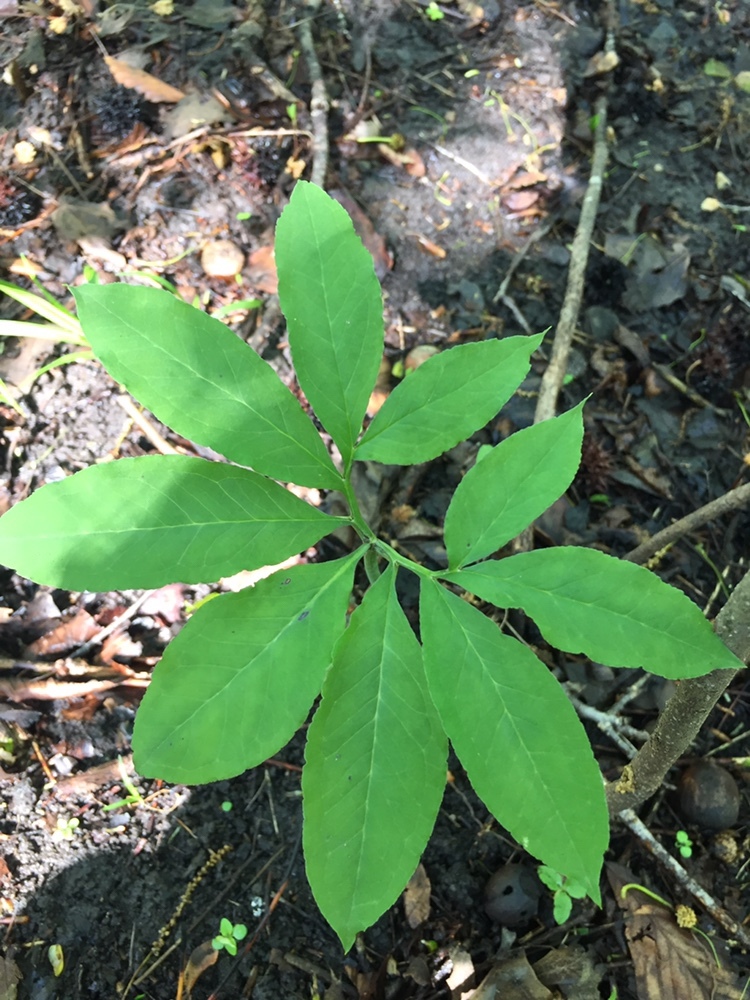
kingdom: Plantae
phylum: Tracheophyta
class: Liliopsida
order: Alismatales
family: Araceae
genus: Arisaema
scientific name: Arisaema dracontium
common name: Dragon-arum
